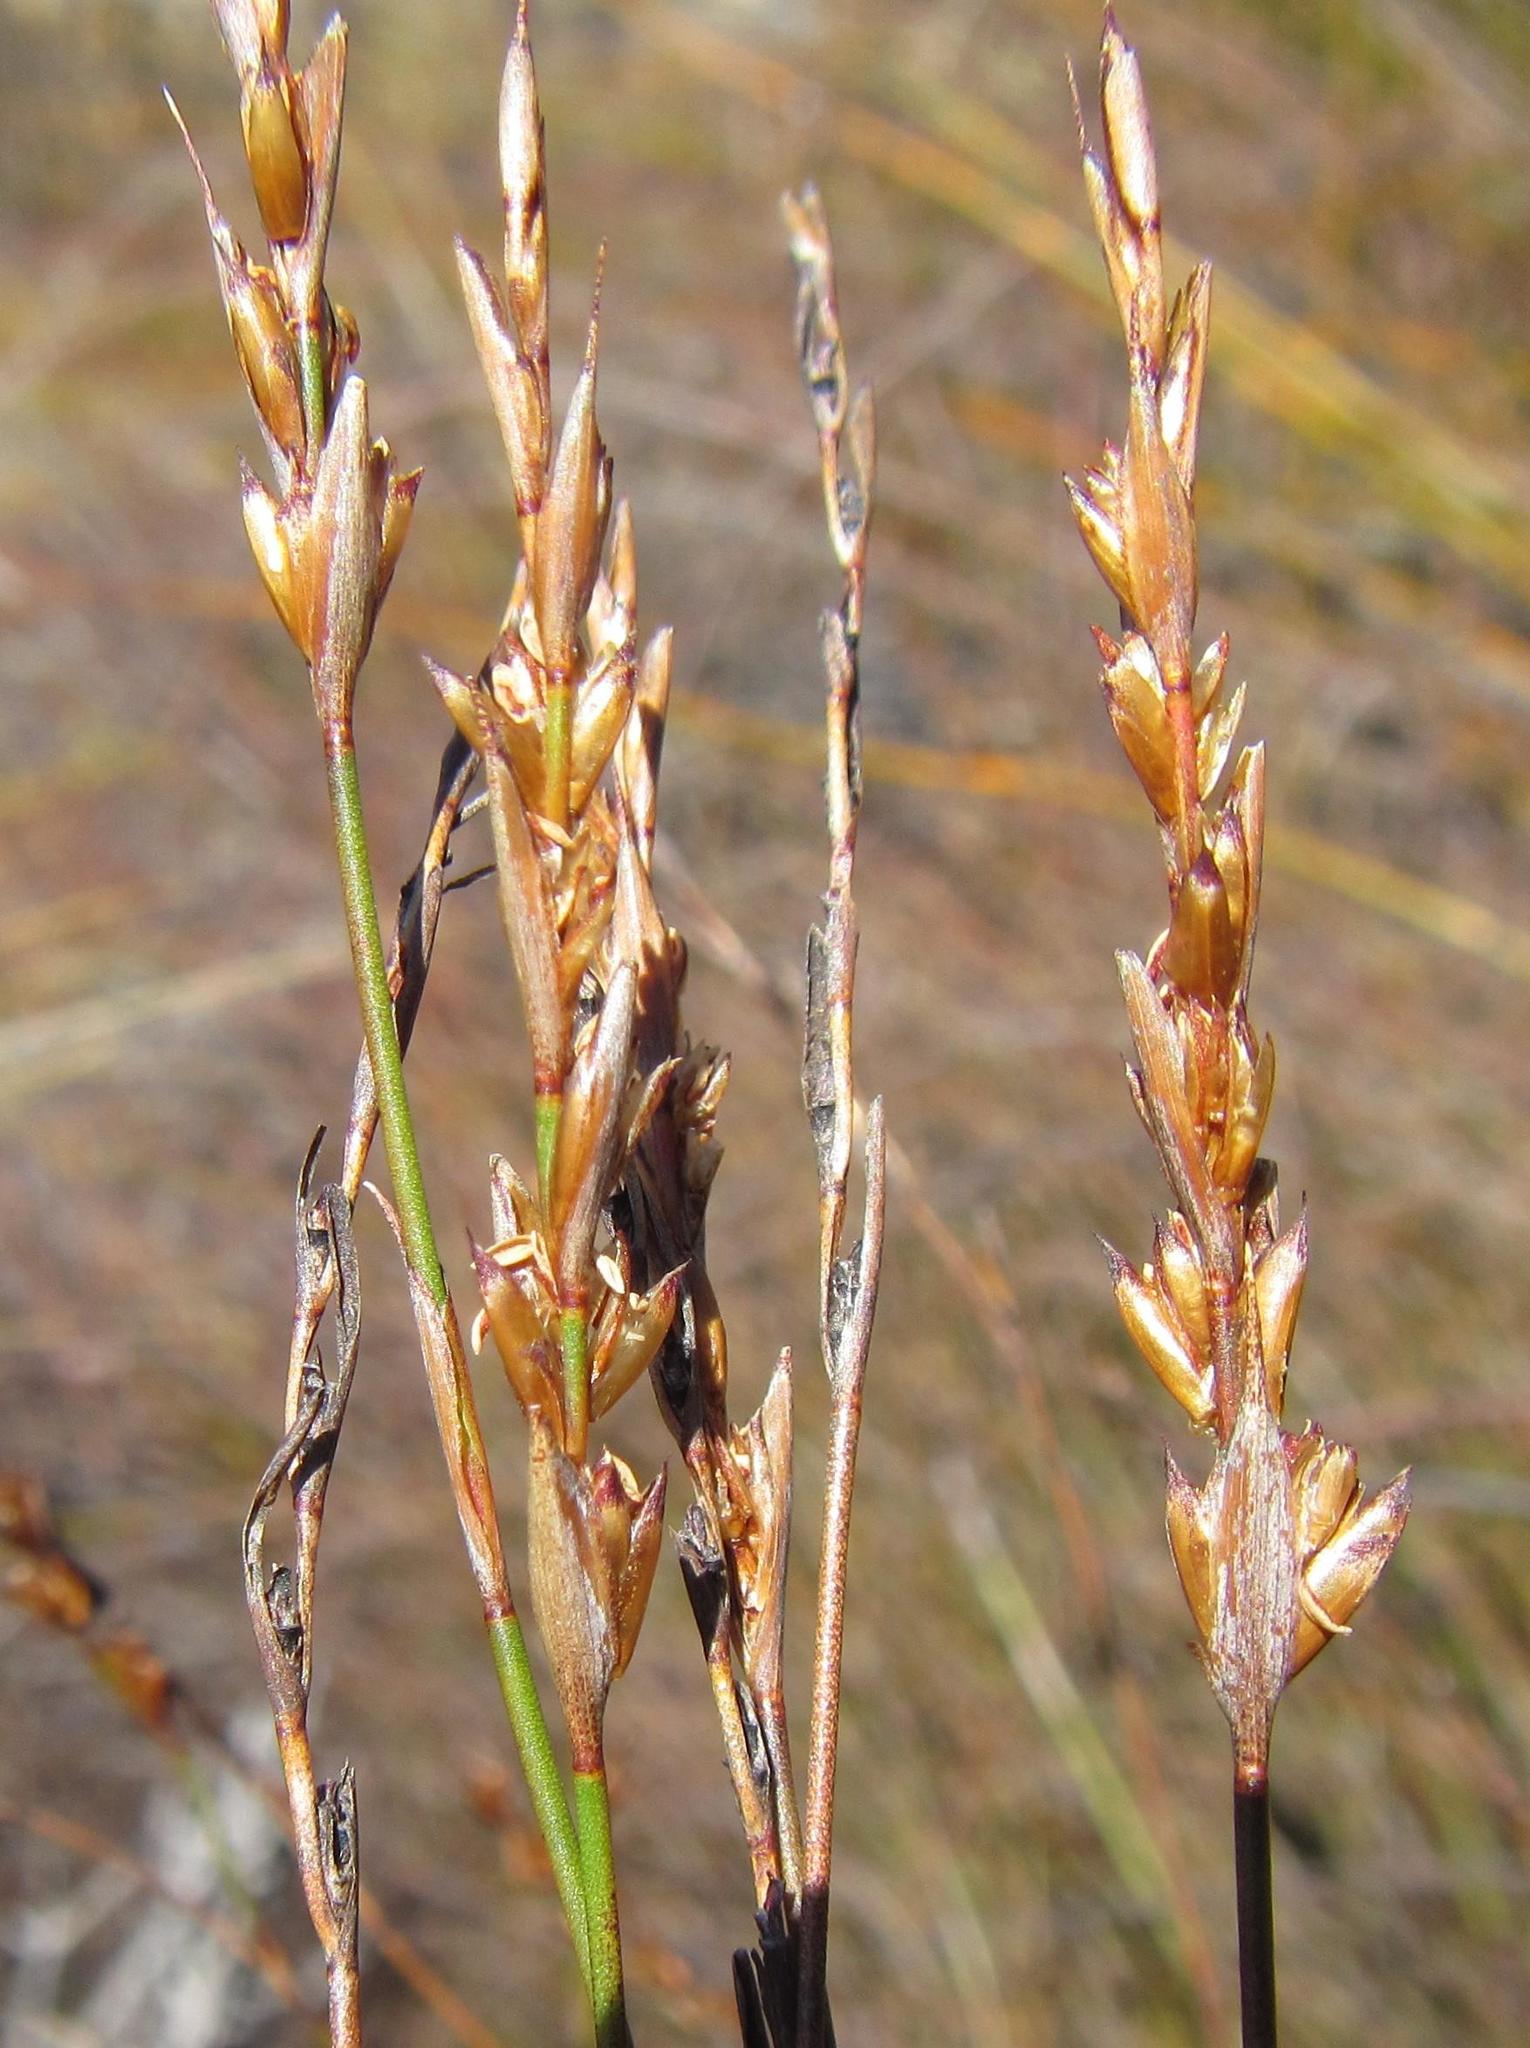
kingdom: Plantae
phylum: Tracheophyta
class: Liliopsida
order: Poales
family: Restionaceae
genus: Restio
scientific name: Restio debilis
